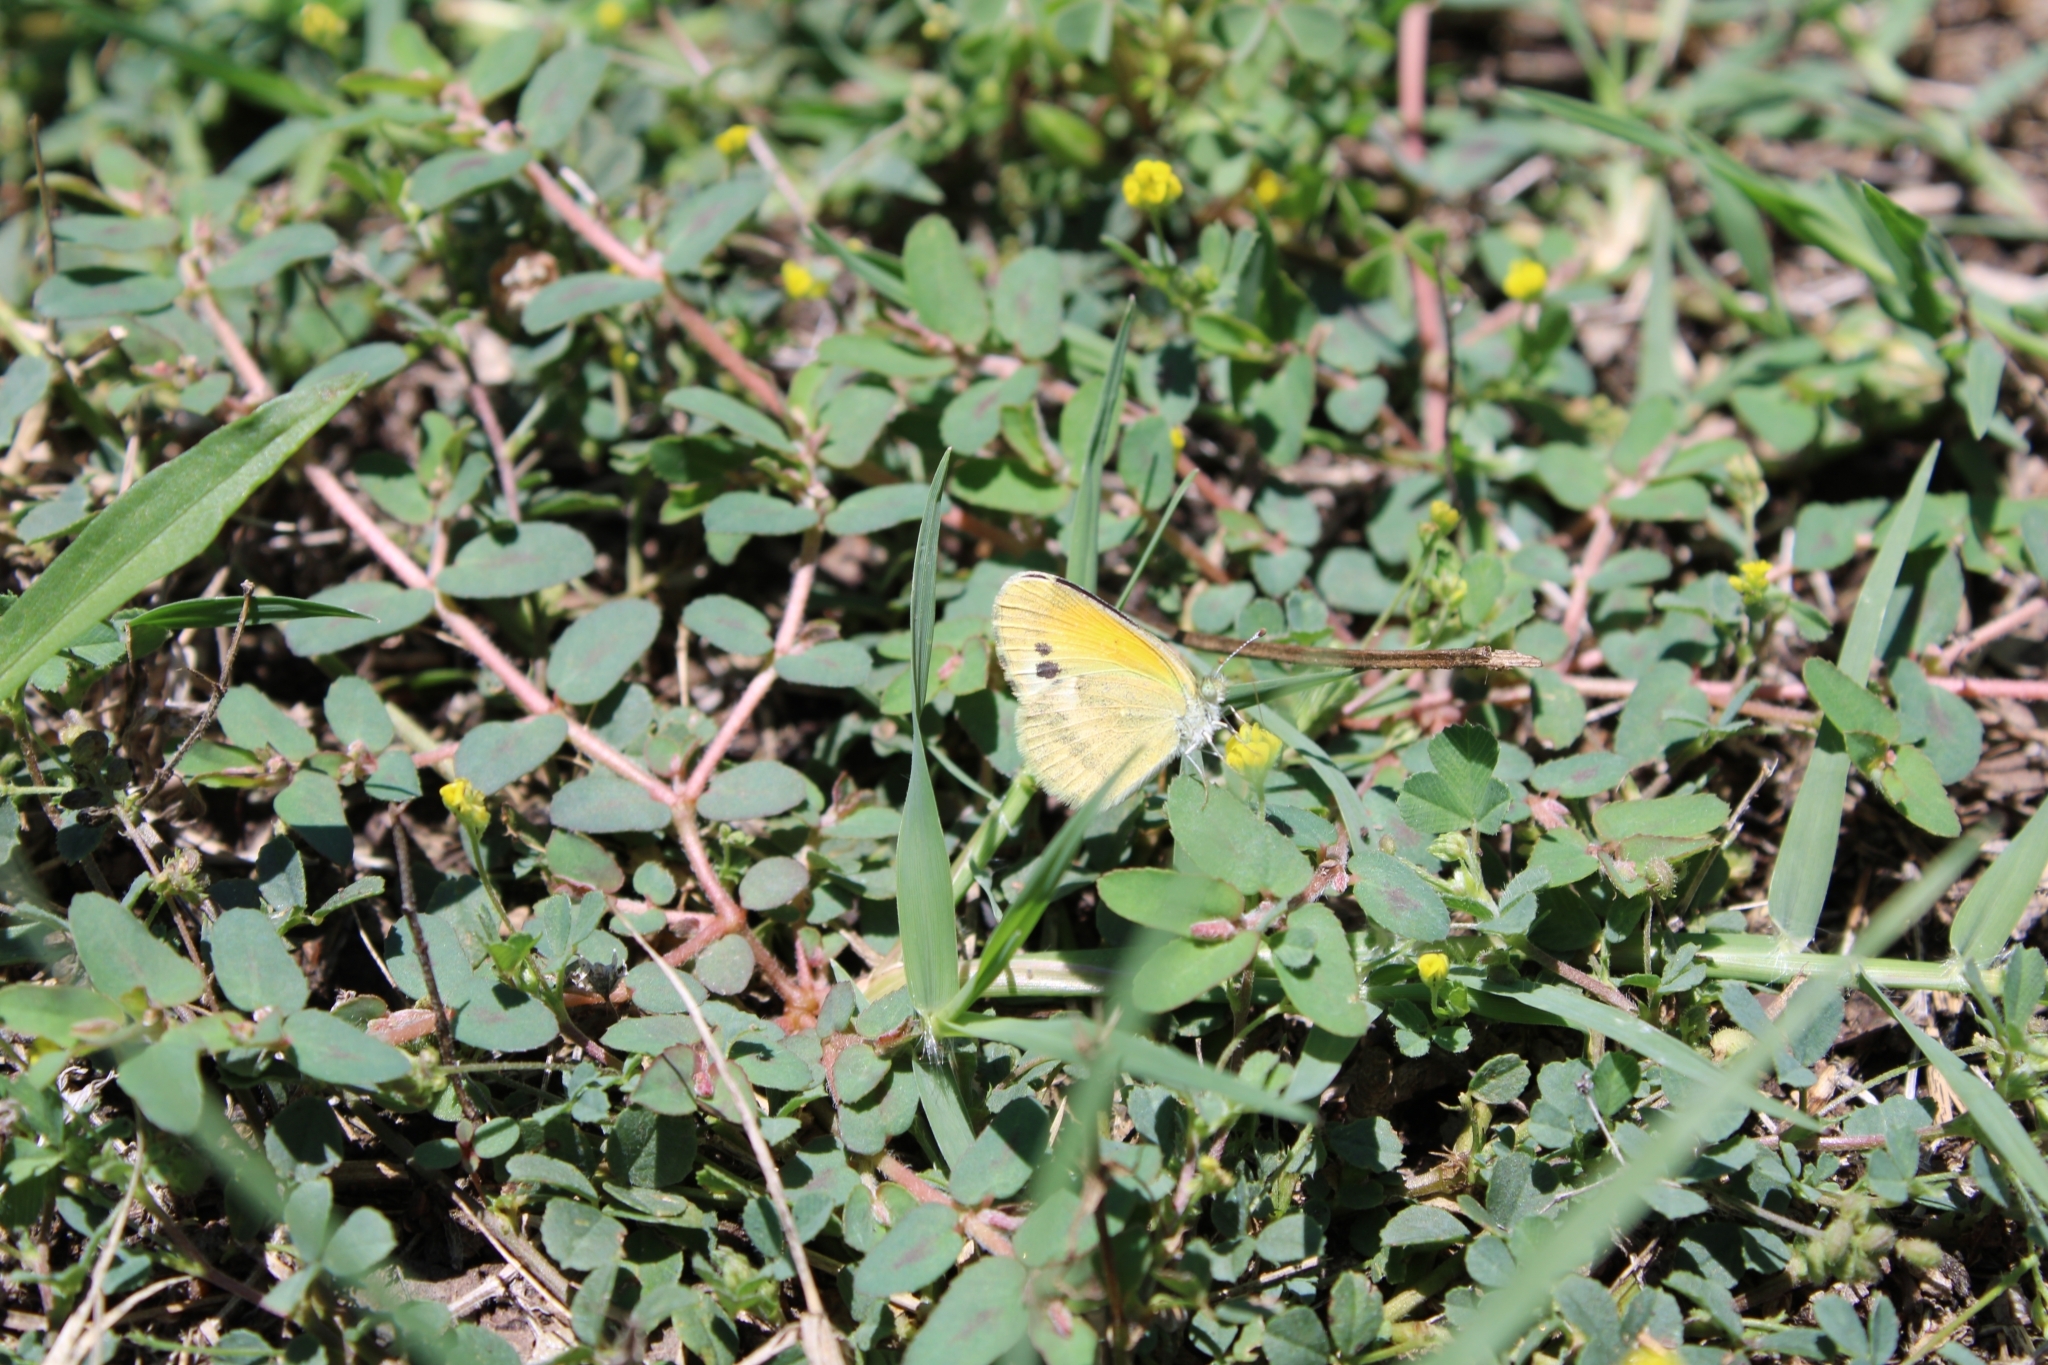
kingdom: Animalia
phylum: Arthropoda
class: Insecta
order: Lepidoptera
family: Pieridae
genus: Nathalis
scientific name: Nathalis iole
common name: Dainty sulphur
